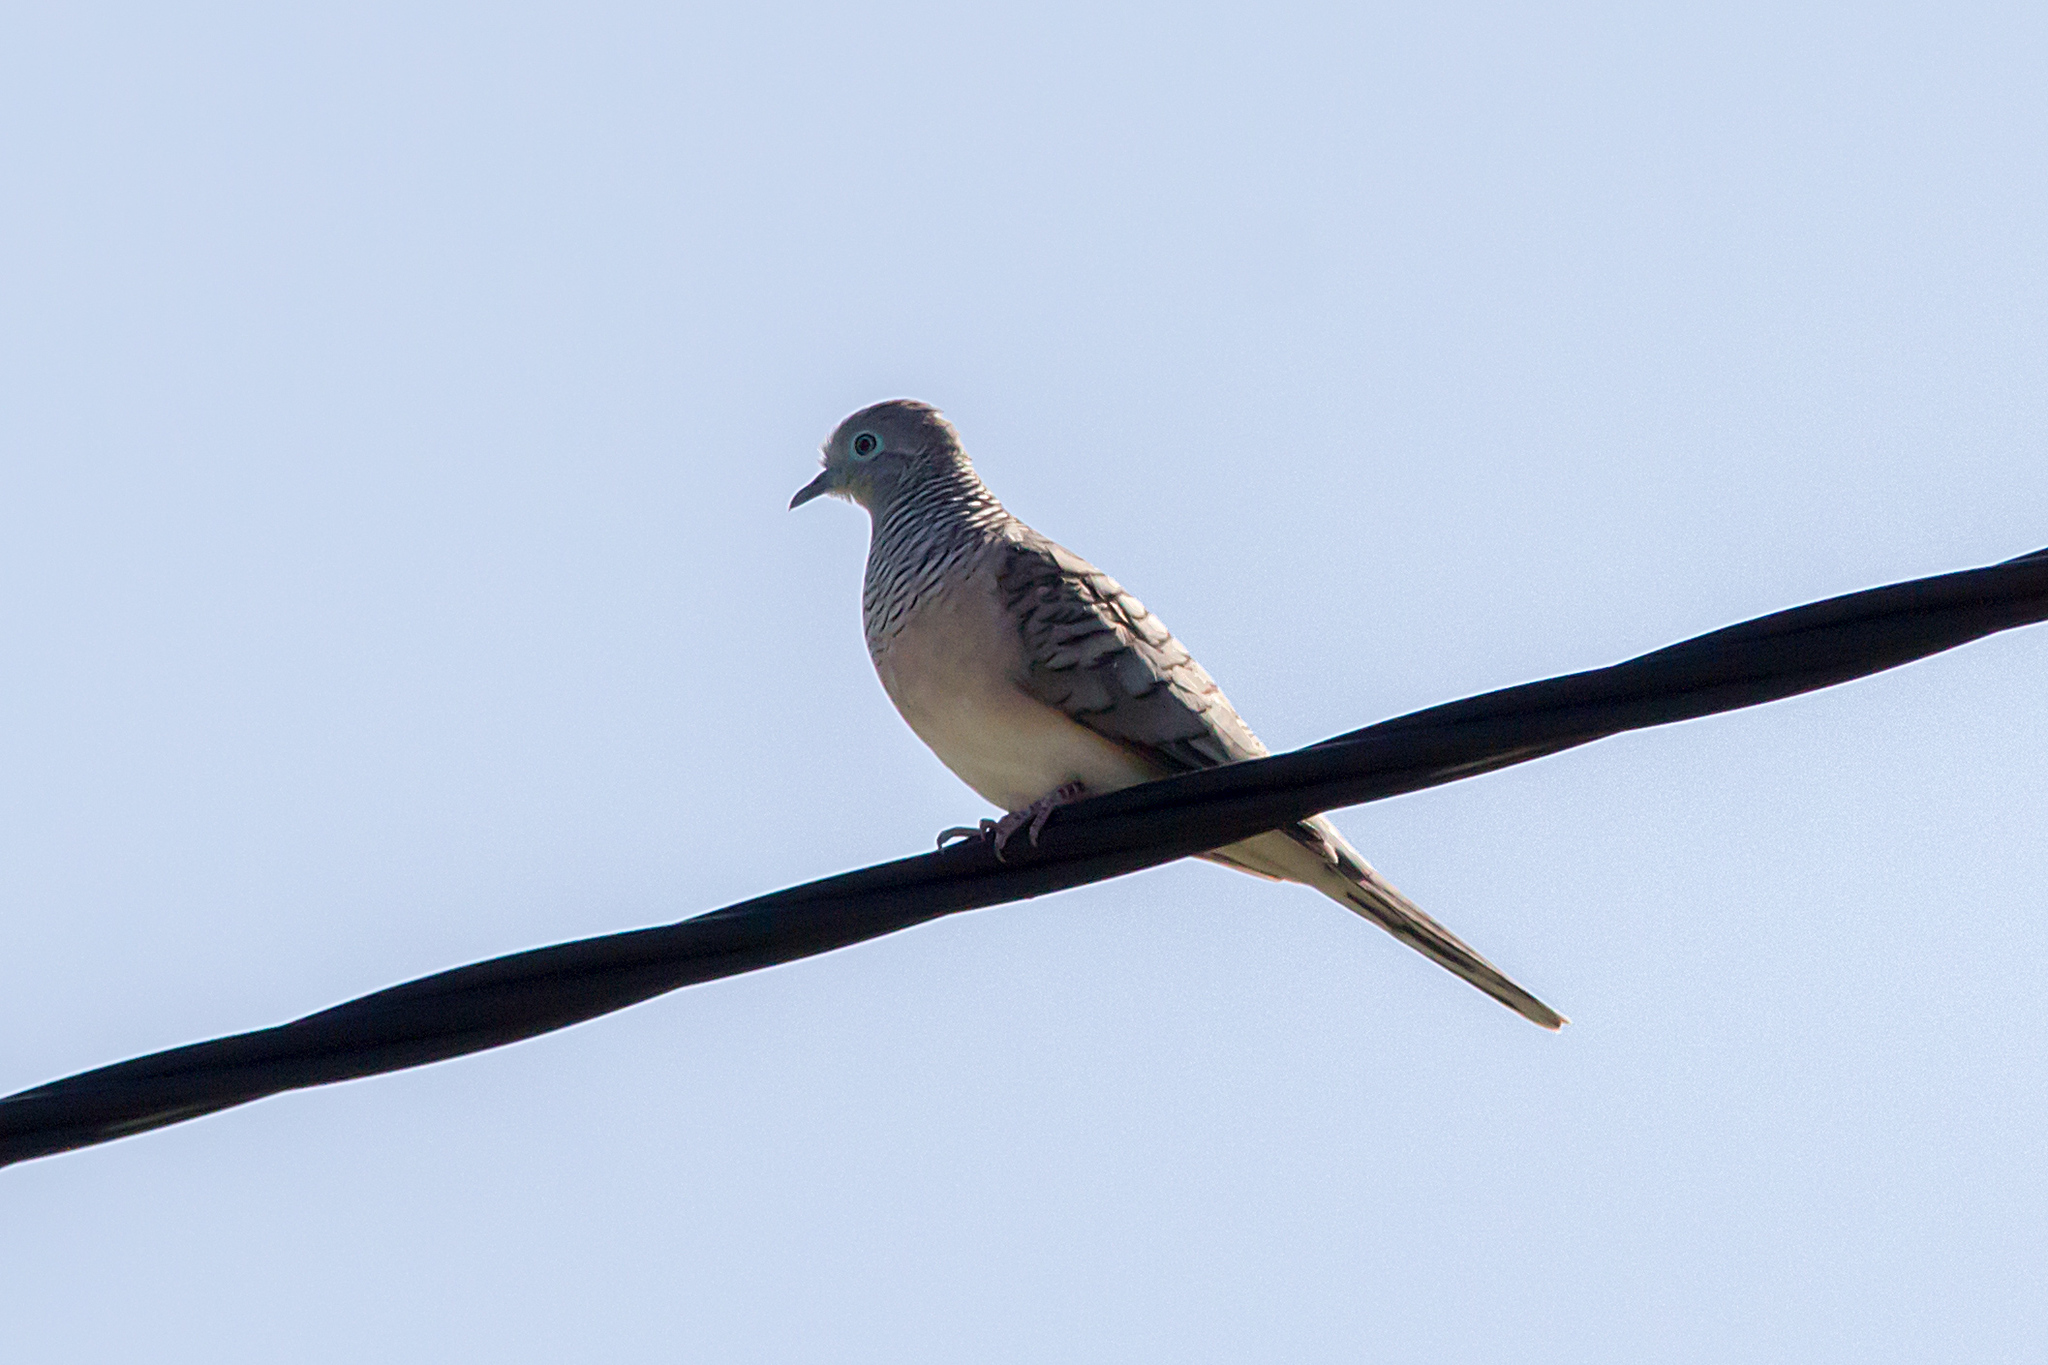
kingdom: Animalia
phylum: Chordata
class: Aves
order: Columbiformes
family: Columbidae
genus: Geopelia
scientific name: Geopelia placida
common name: Peaceful dove
